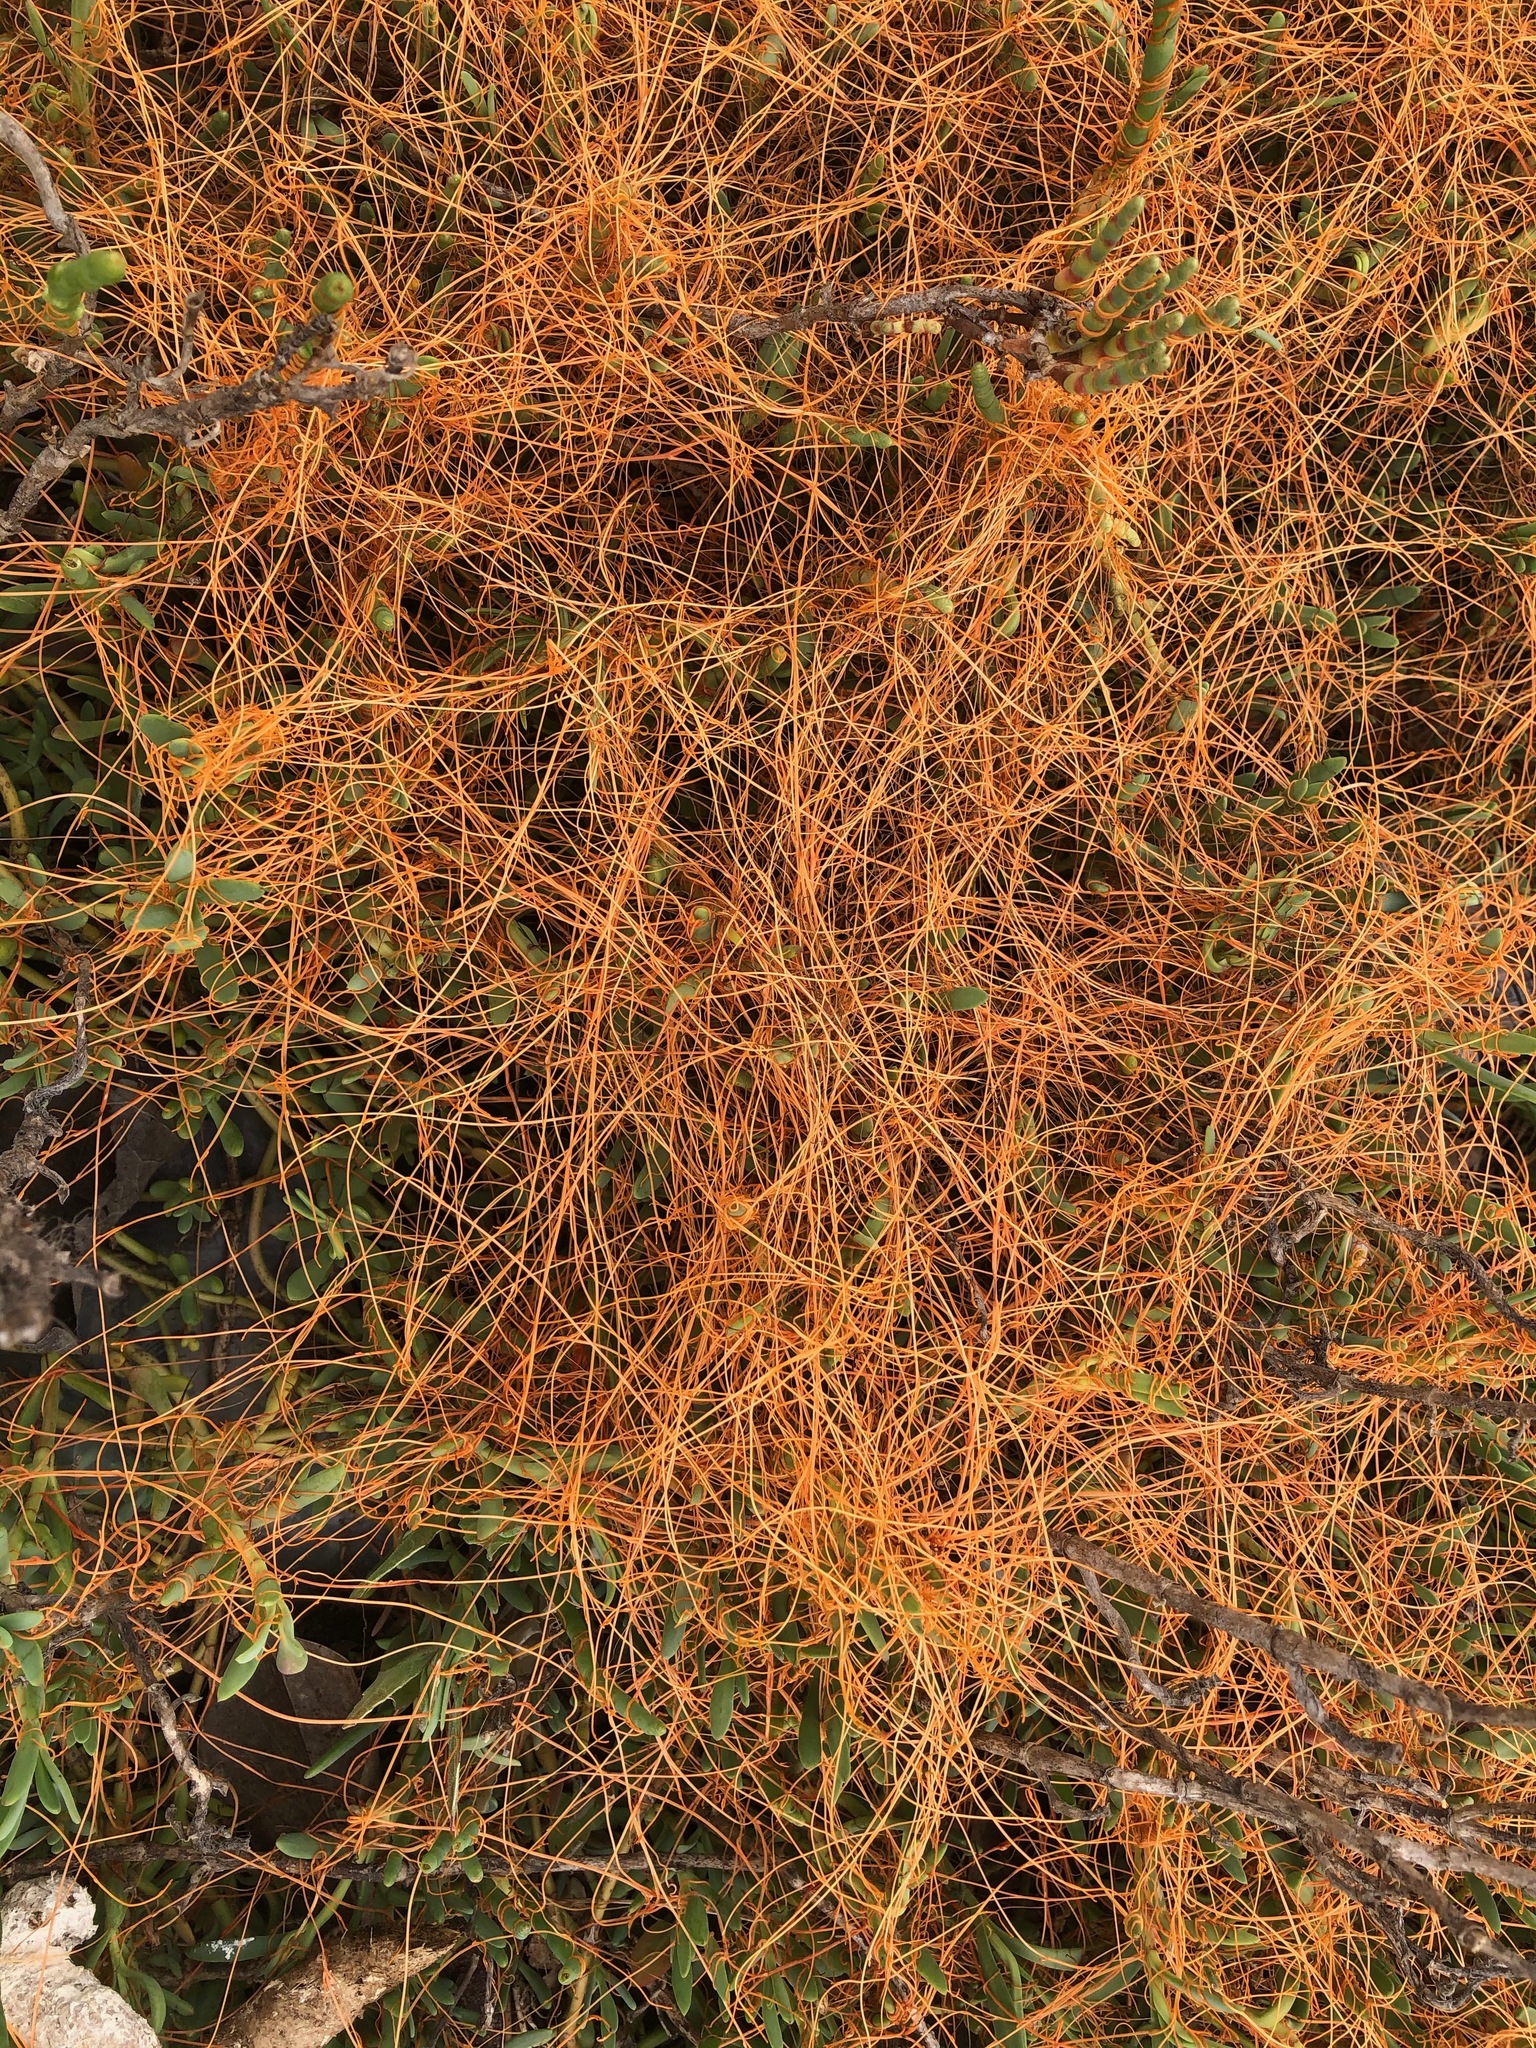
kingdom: Plantae
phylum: Tracheophyta
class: Magnoliopsida
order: Solanales
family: Convolvulaceae
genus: Cuscuta
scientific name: Cuscuta pacifica
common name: Large saltmarsh dodder
